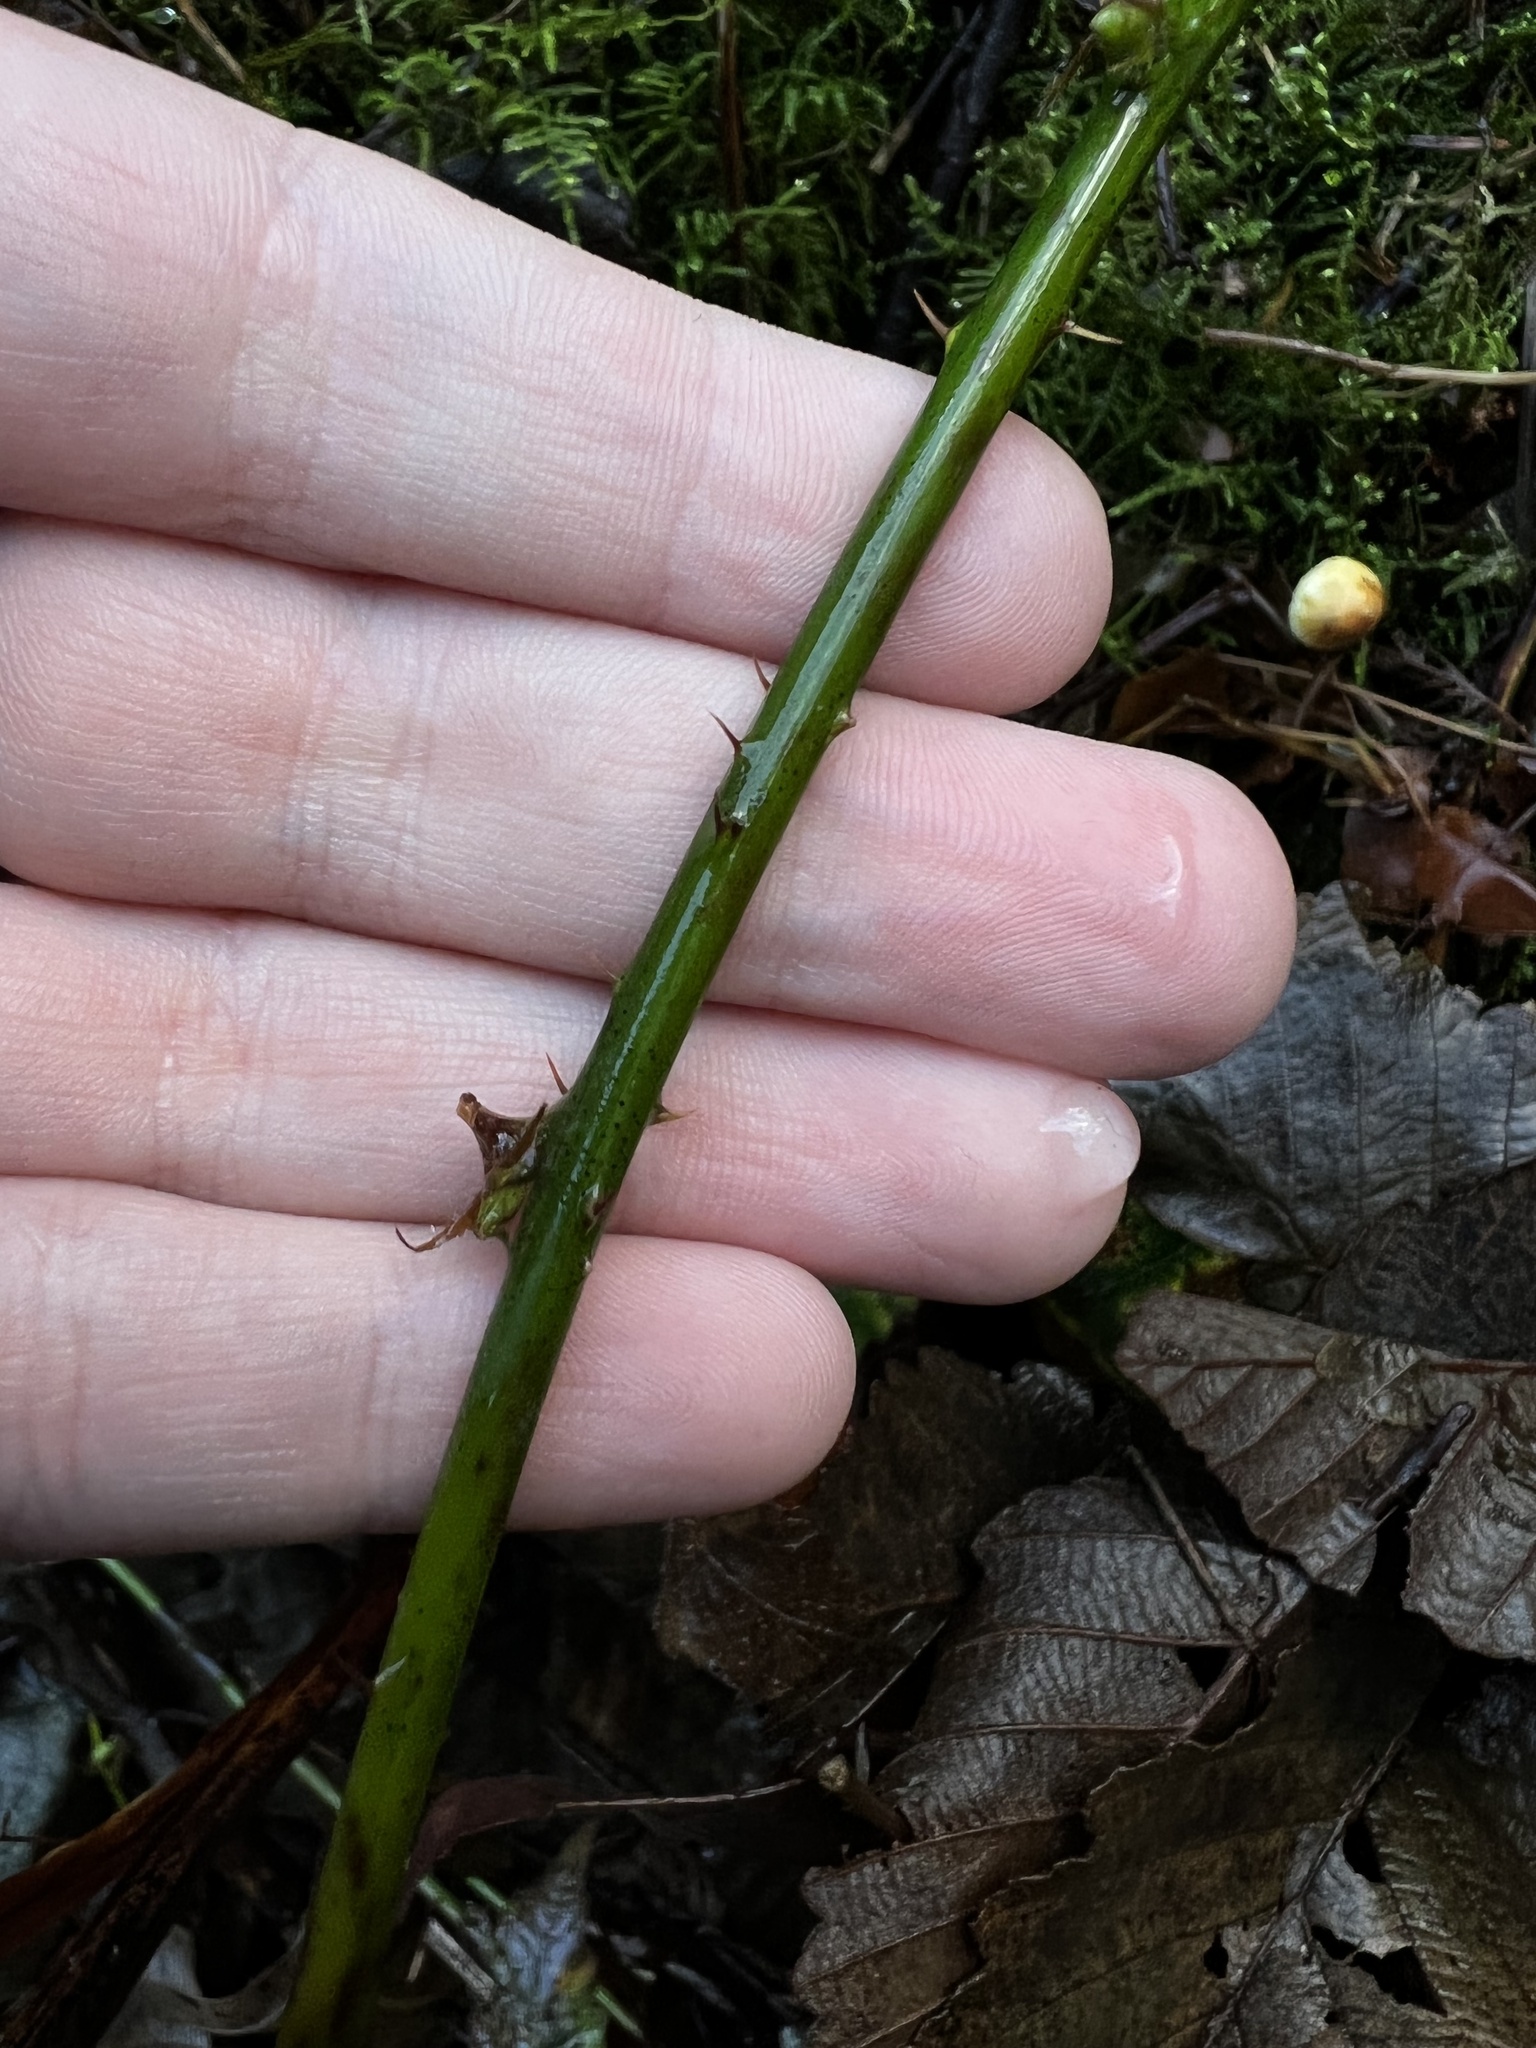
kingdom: Plantae
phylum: Tracheophyta
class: Magnoliopsida
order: Rosales
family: Rosaceae
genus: Rubus
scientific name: Rubus ursinus
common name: Pacific blackberry
